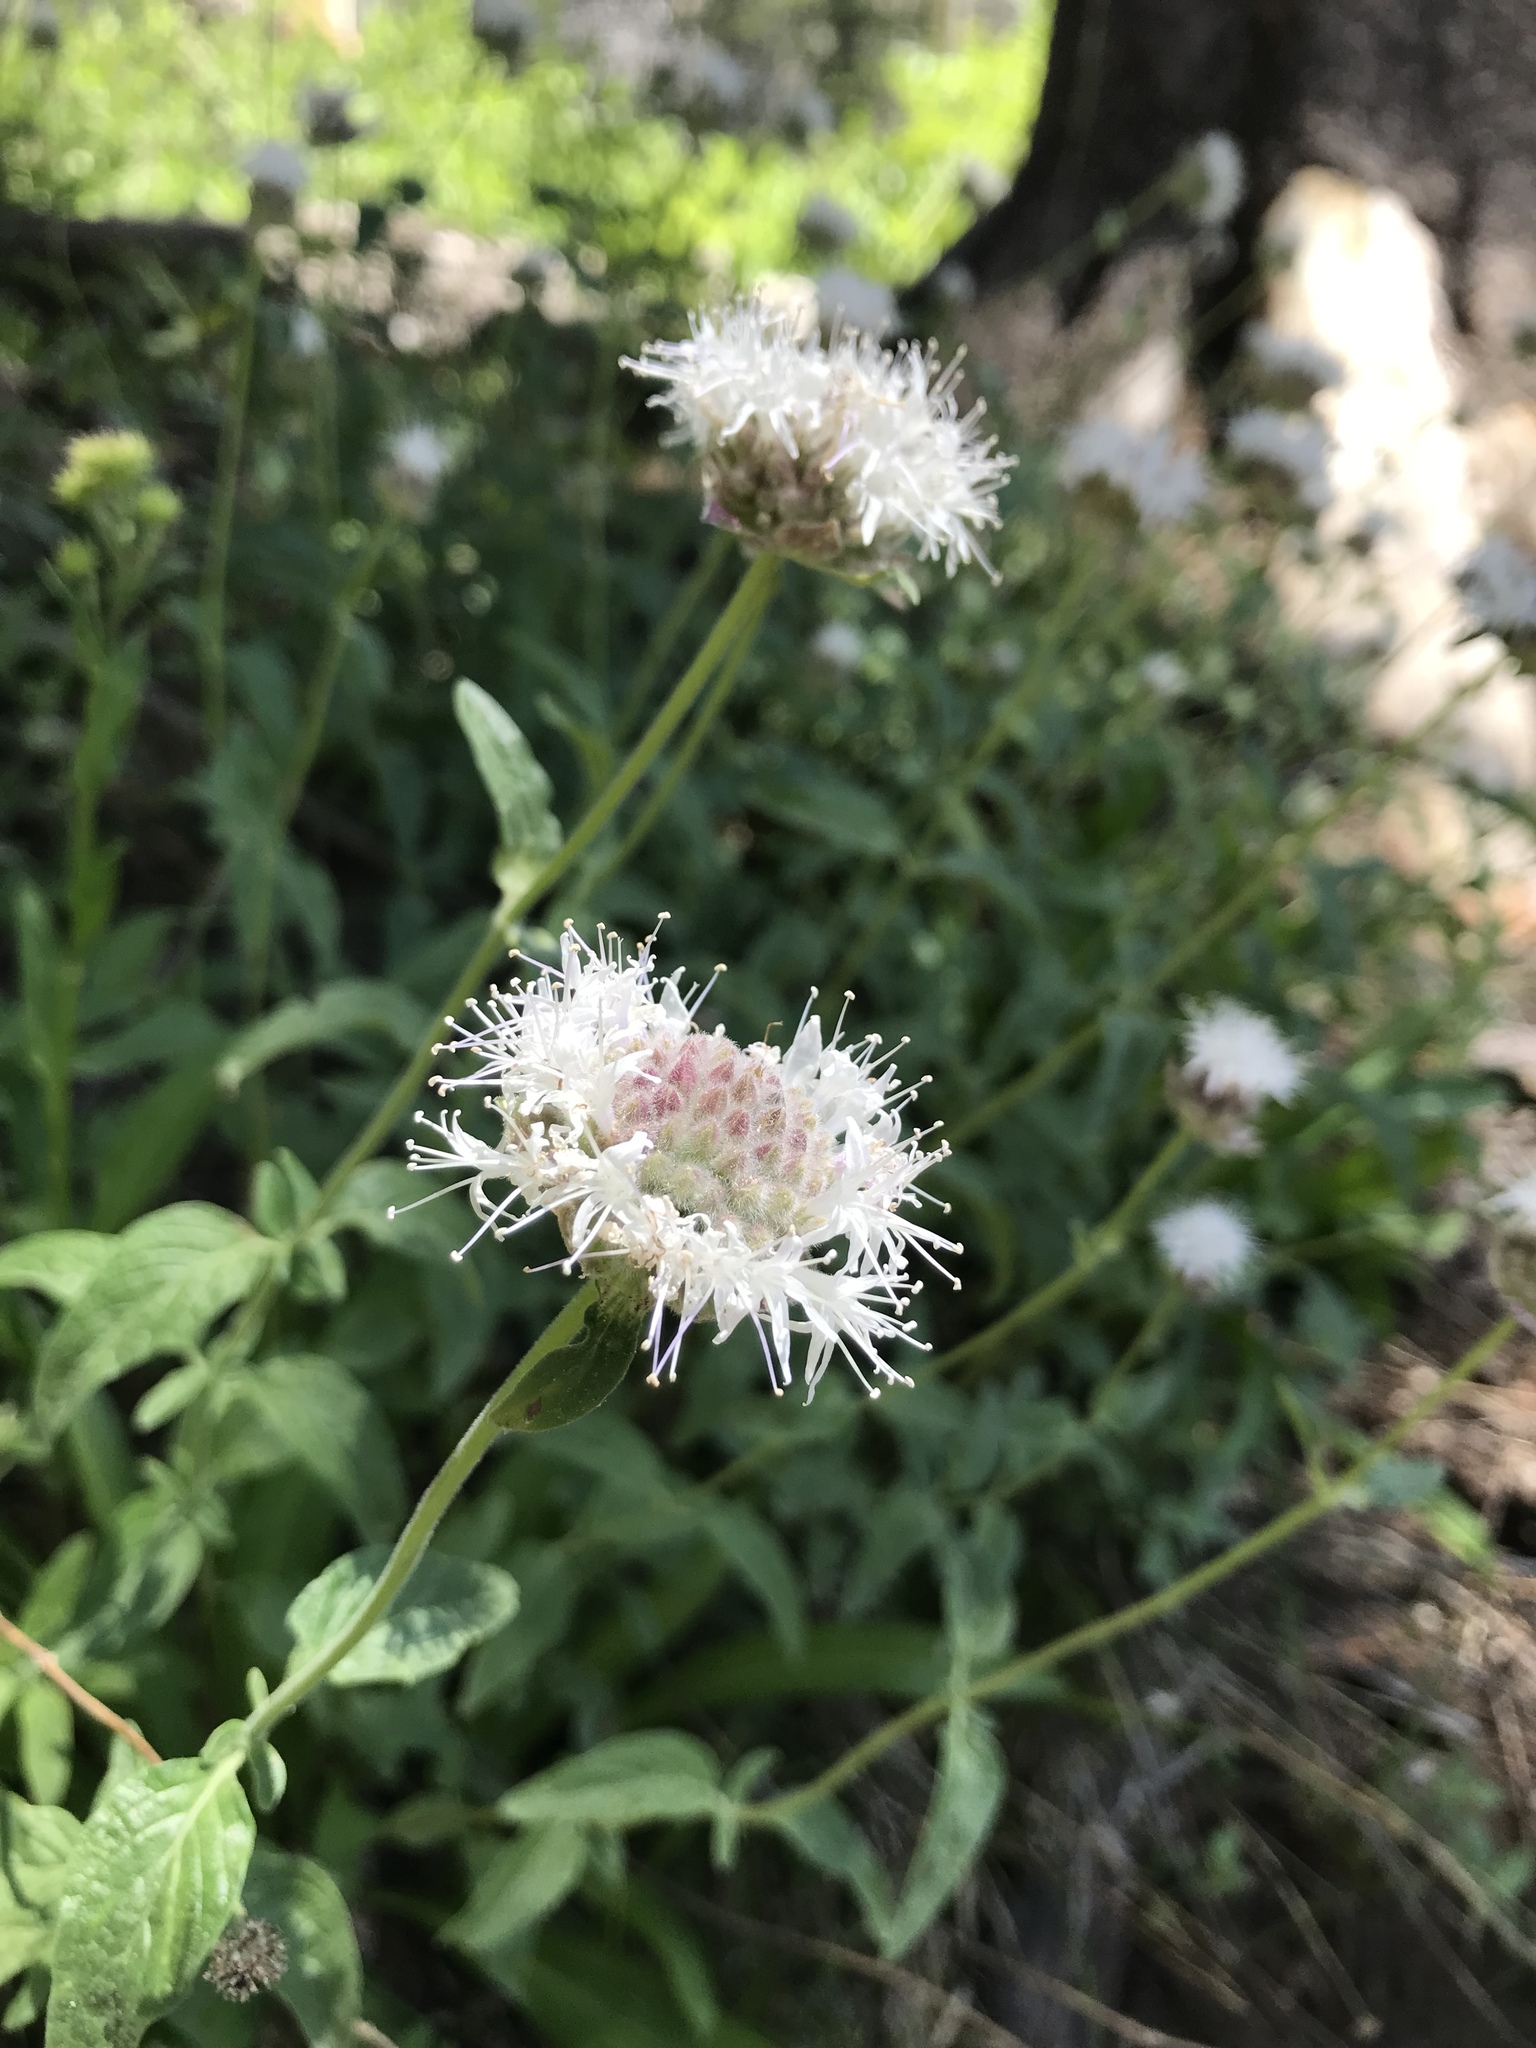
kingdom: Plantae
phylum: Tracheophyta
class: Magnoliopsida
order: Lamiales
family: Lamiaceae
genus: Monardella
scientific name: Monardella odoratissima
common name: Pacific monardella
